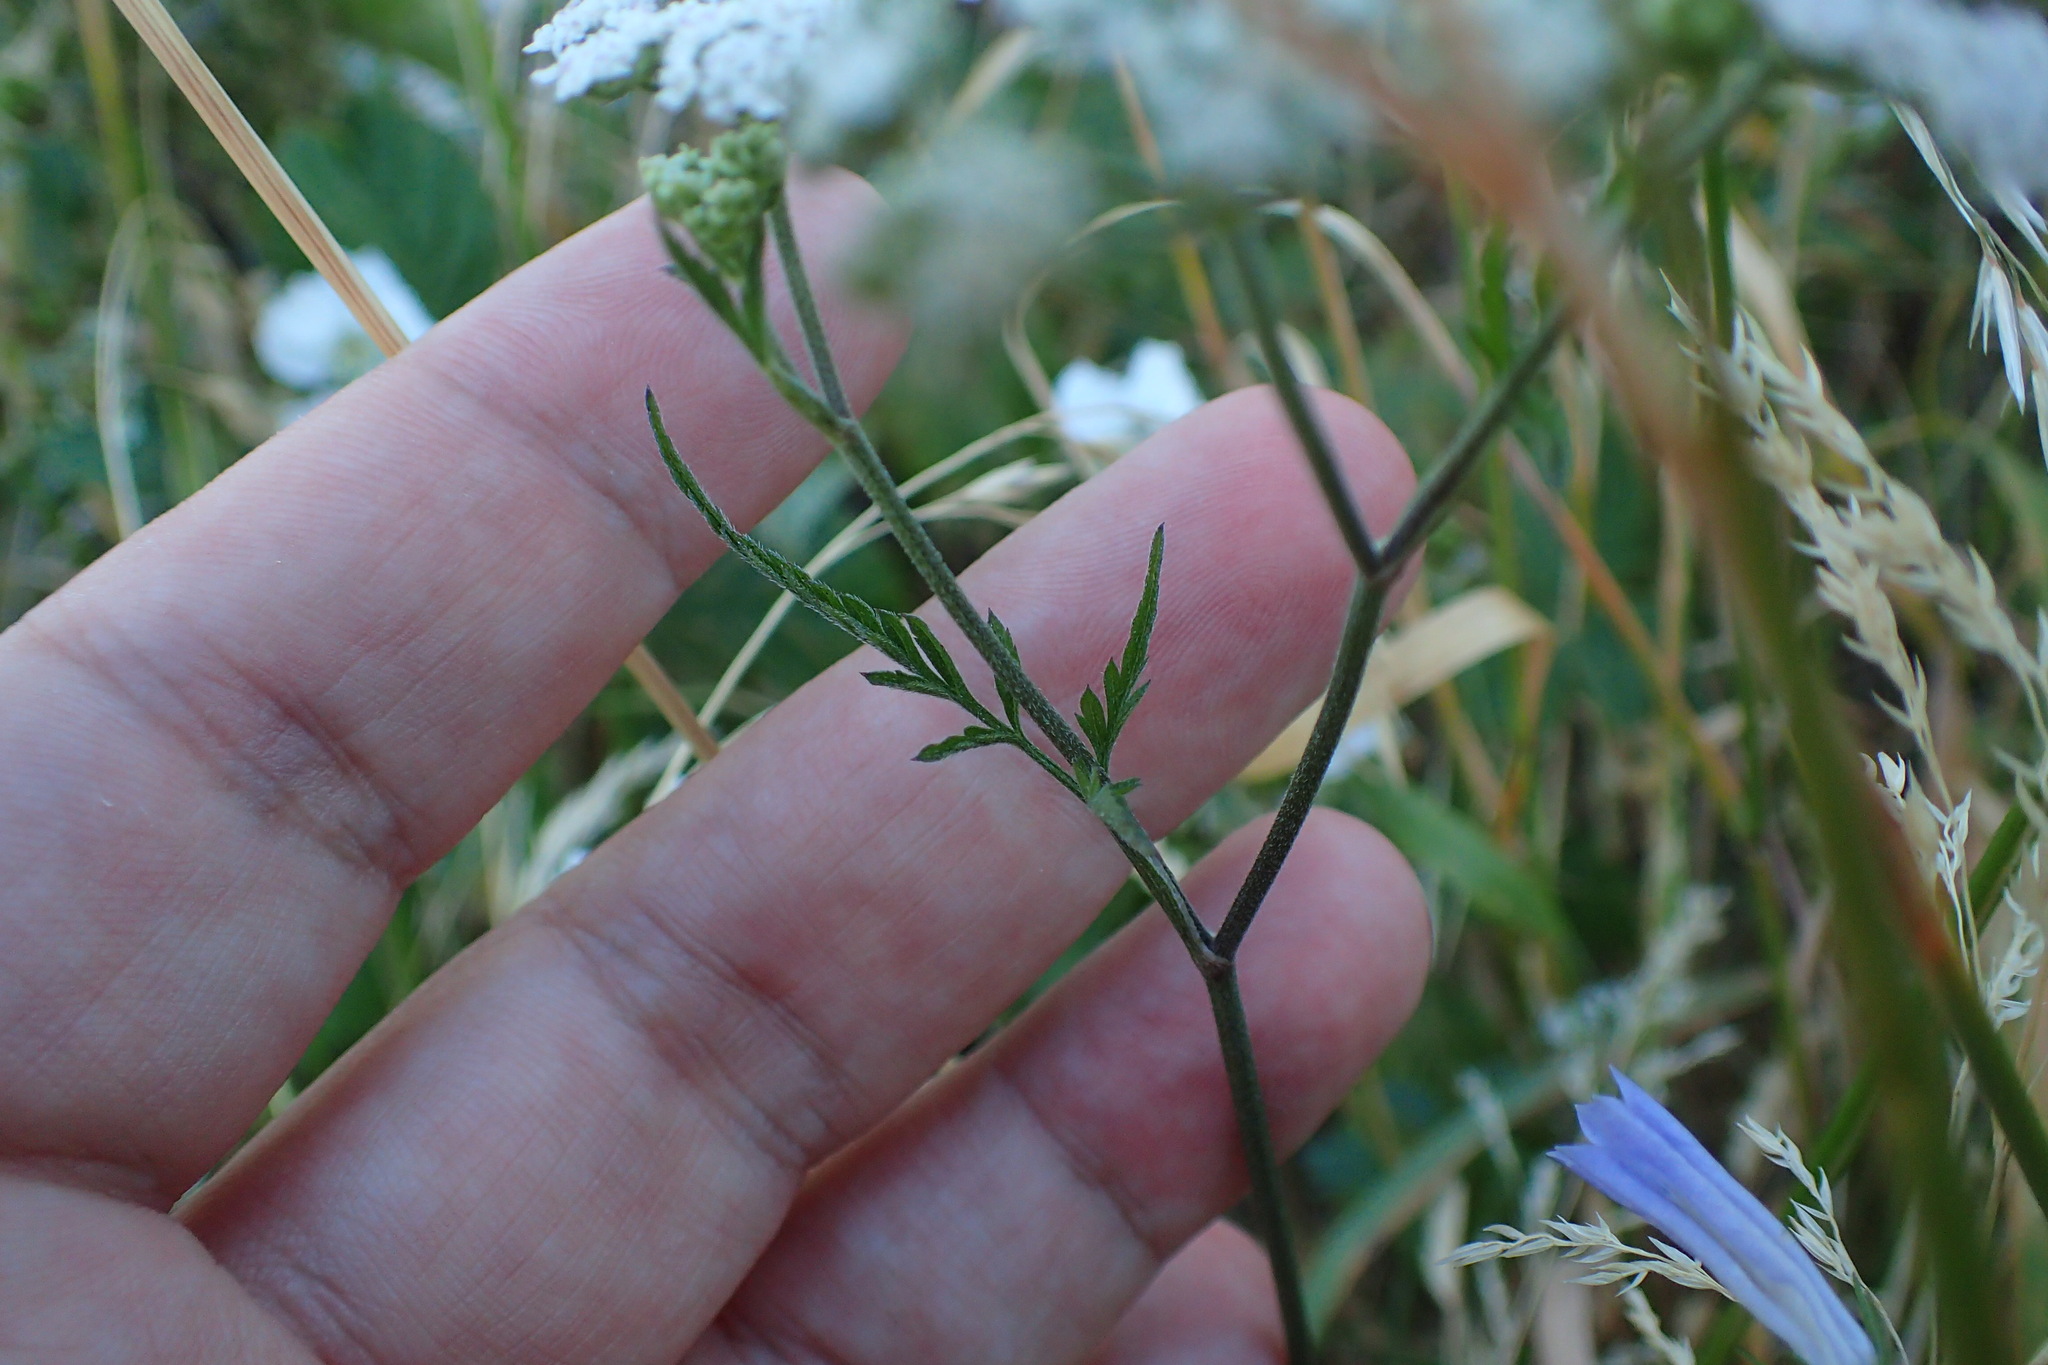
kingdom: Plantae
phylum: Tracheophyta
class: Magnoliopsida
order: Apiales
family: Apiaceae
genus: Torilis
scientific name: Torilis japonica
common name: Upright hedge-parsley
